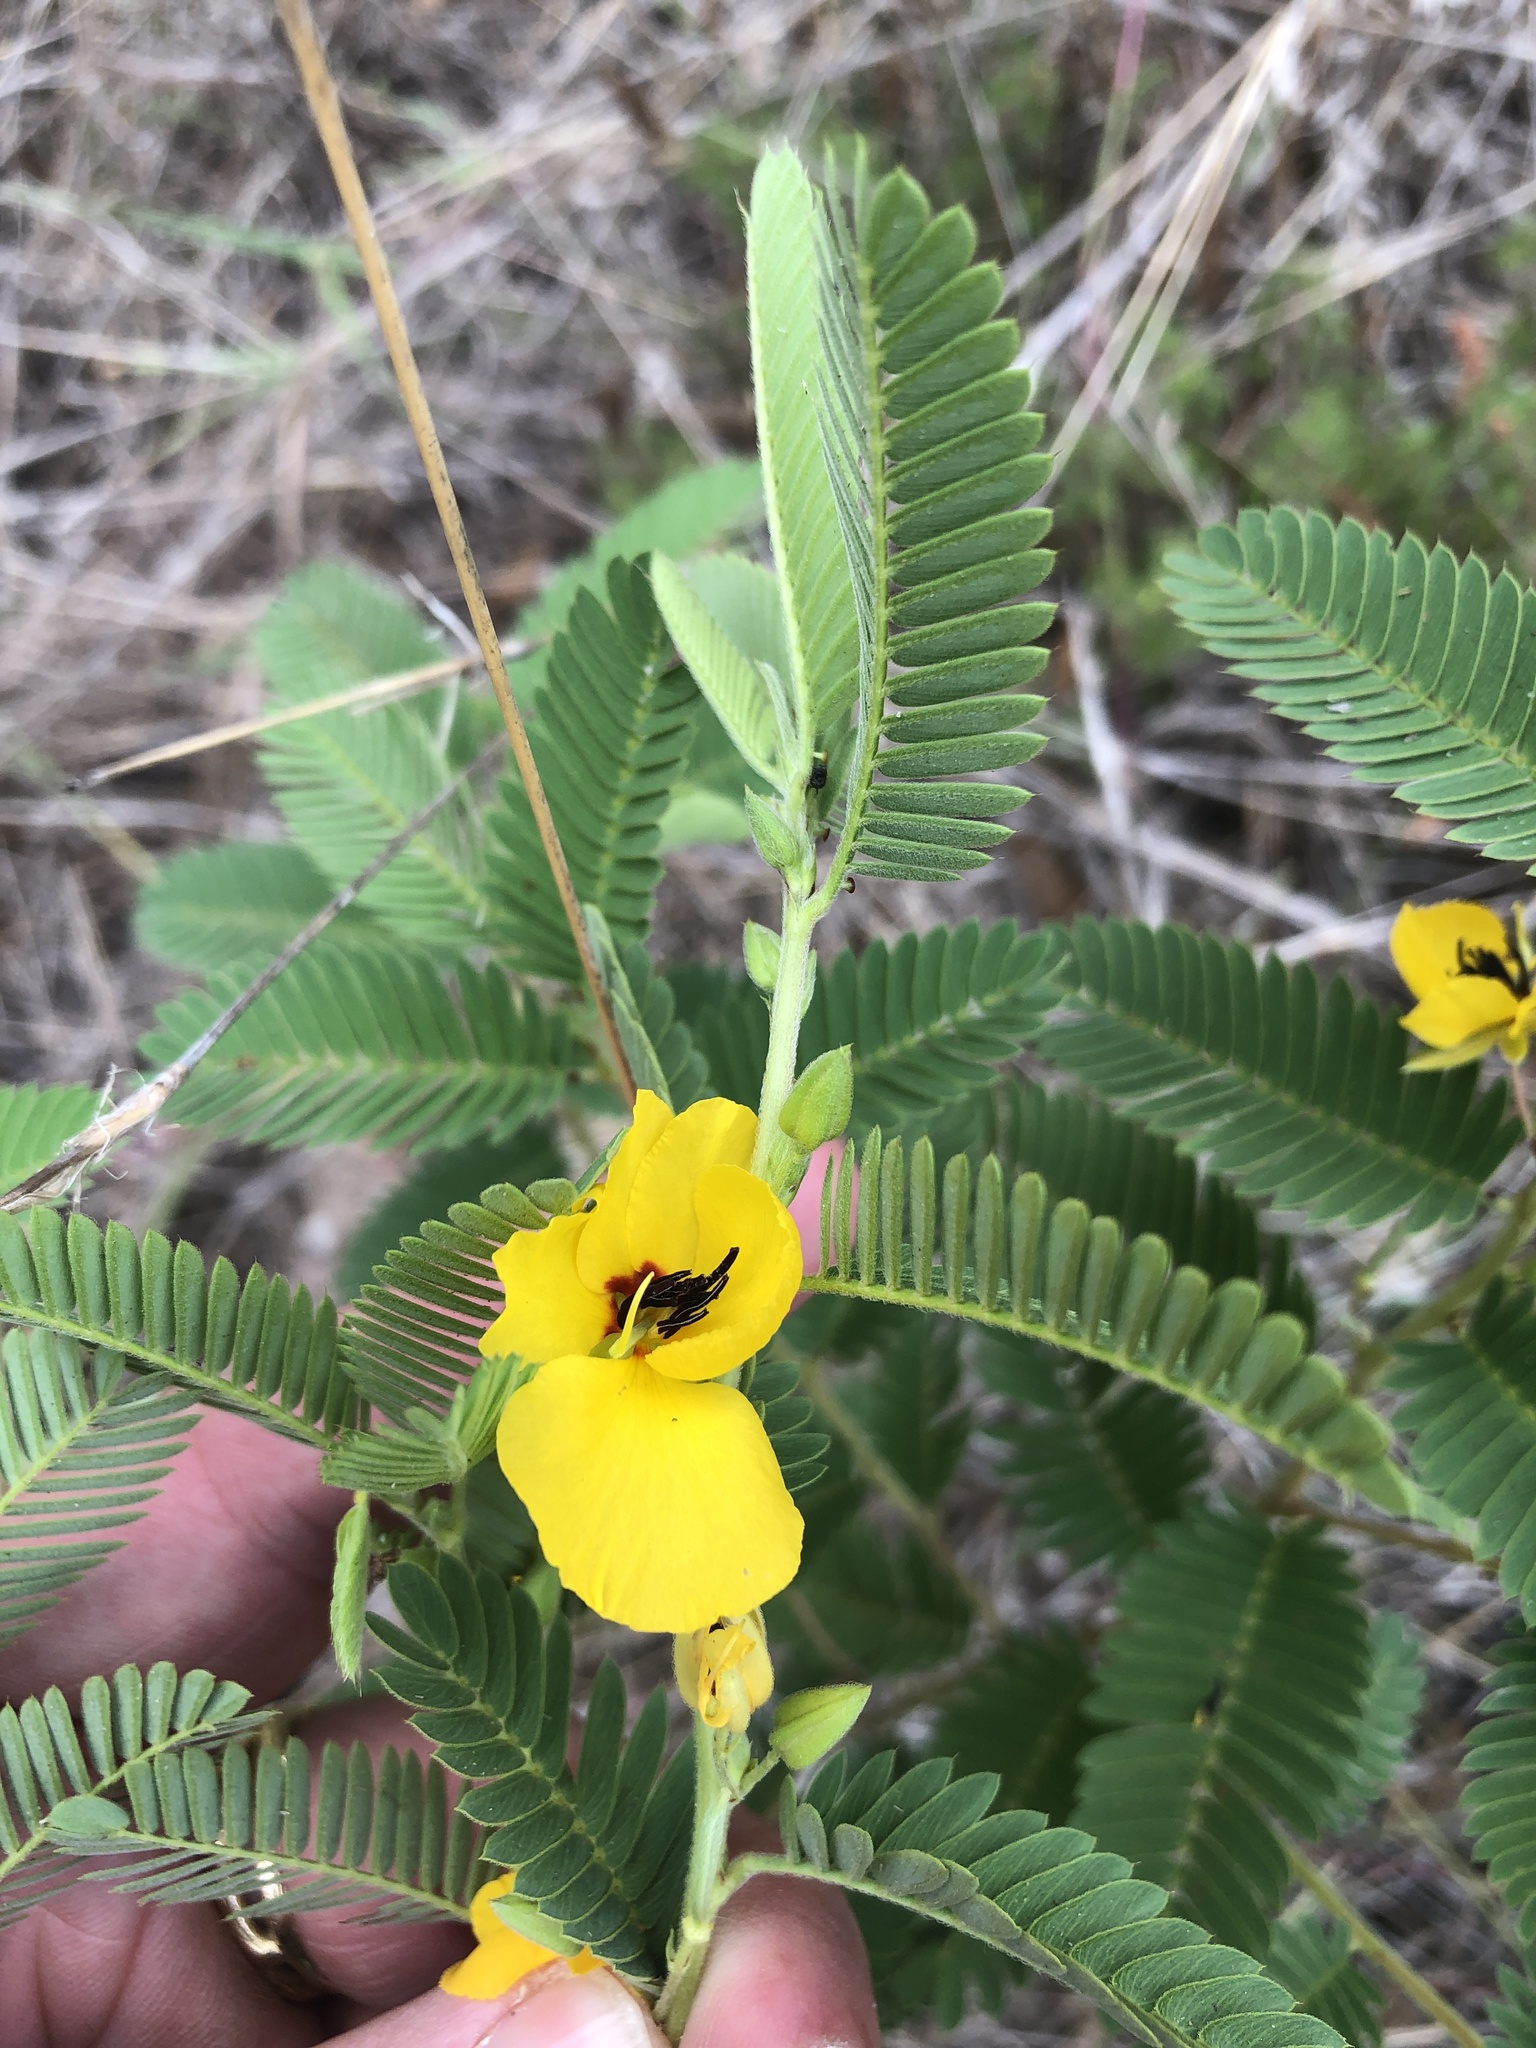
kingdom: Plantae
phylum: Tracheophyta
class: Magnoliopsida
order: Fabales
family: Fabaceae
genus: Chamaecrista
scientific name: Chamaecrista fasciculata
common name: Golden cassia
